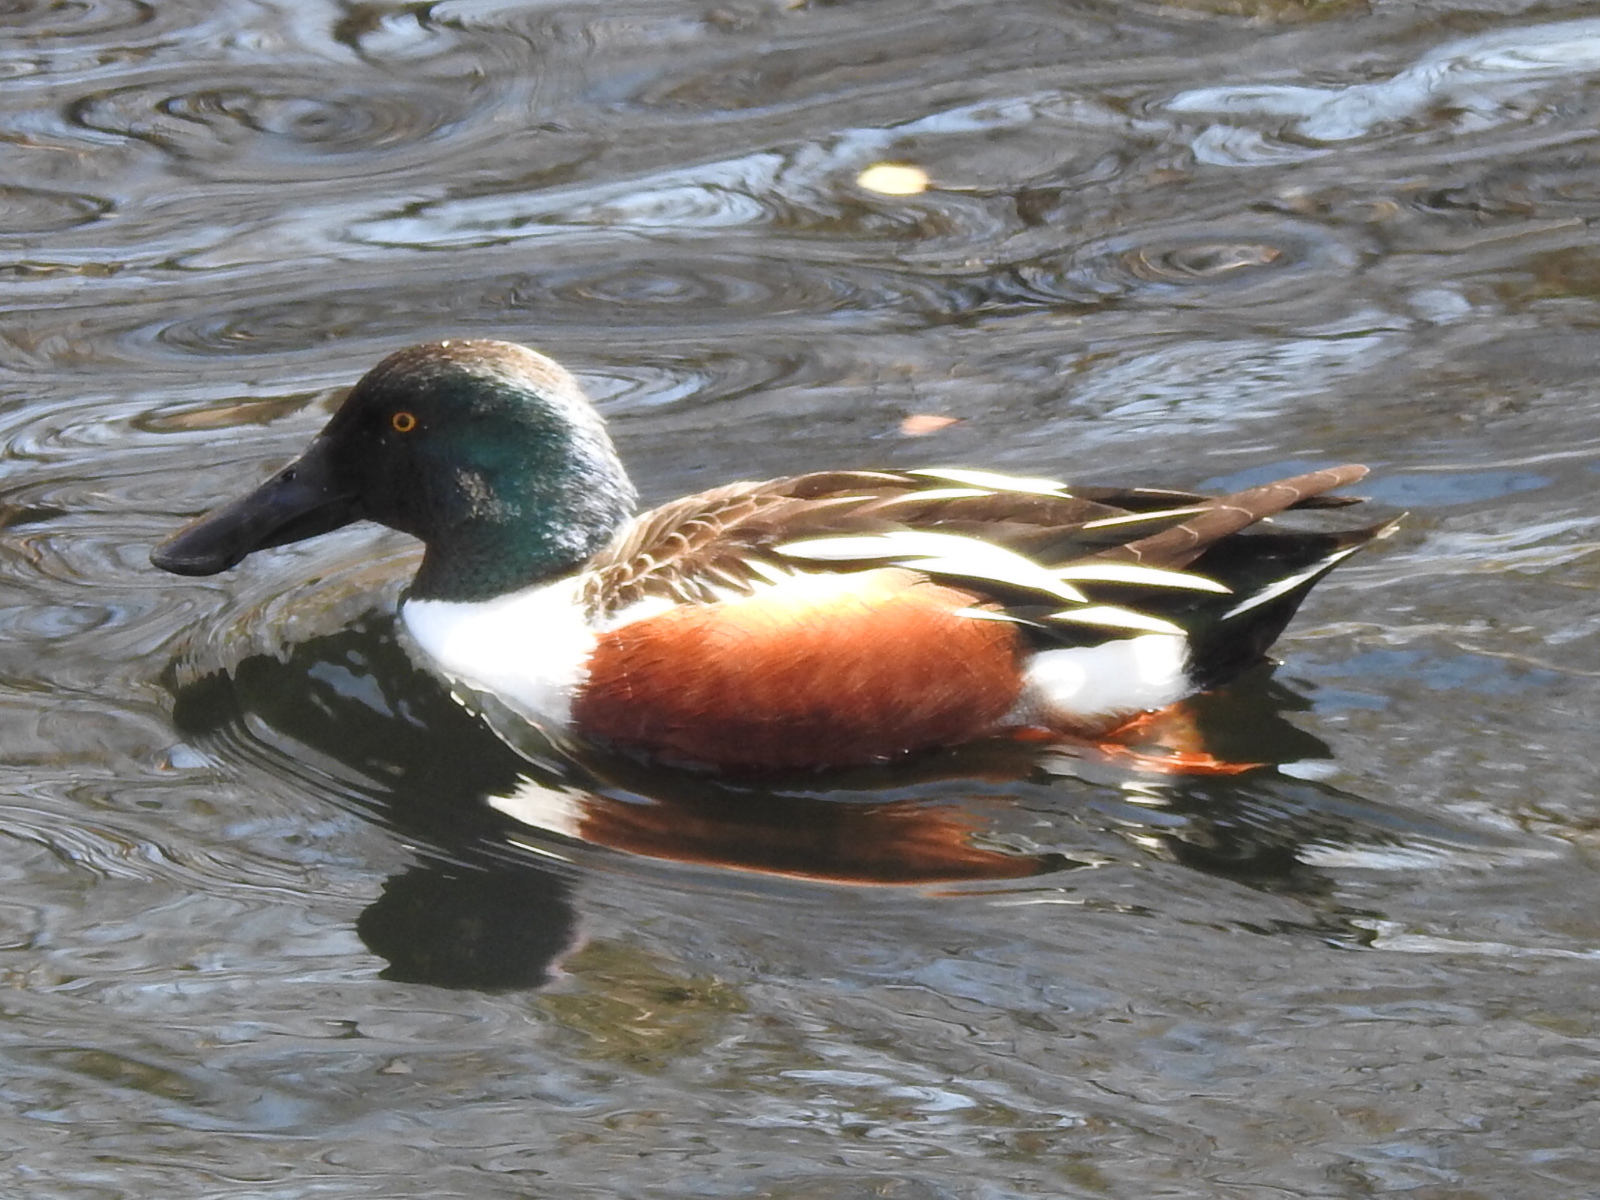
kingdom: Animalia
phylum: Chordata
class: Aves
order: Anseriformes
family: Anatidae
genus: Spatula
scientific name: Spatula clypeata
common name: Northern shoveler
